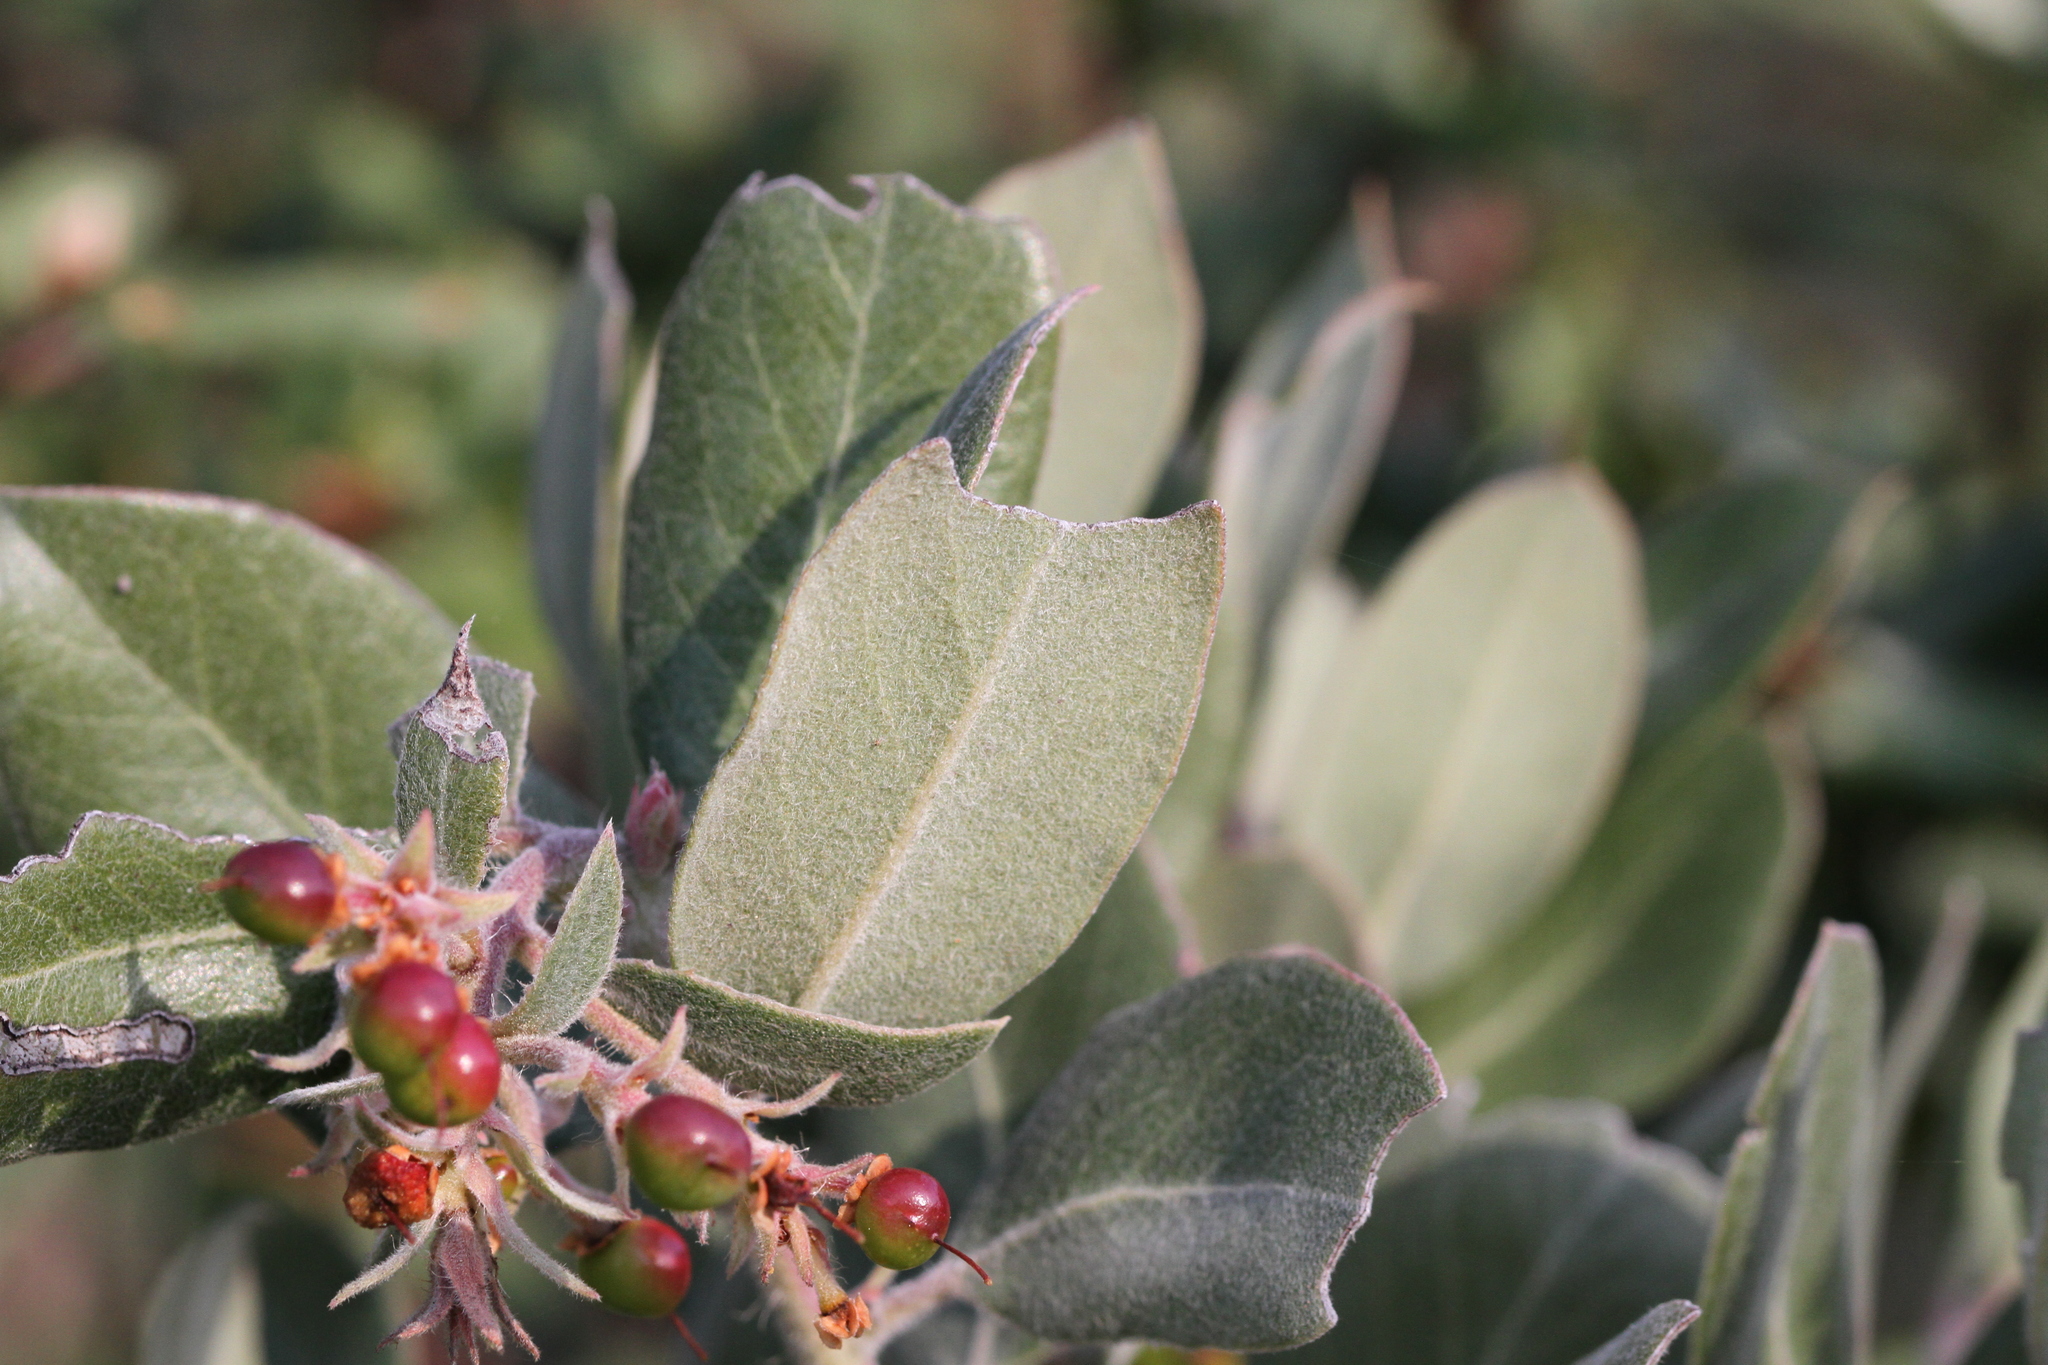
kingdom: Plantae
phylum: Tracheophyta
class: Magnoliopsida
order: Ericales
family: Ericaceae
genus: Arctostaphylos
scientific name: Arctostaphylos crustacea
